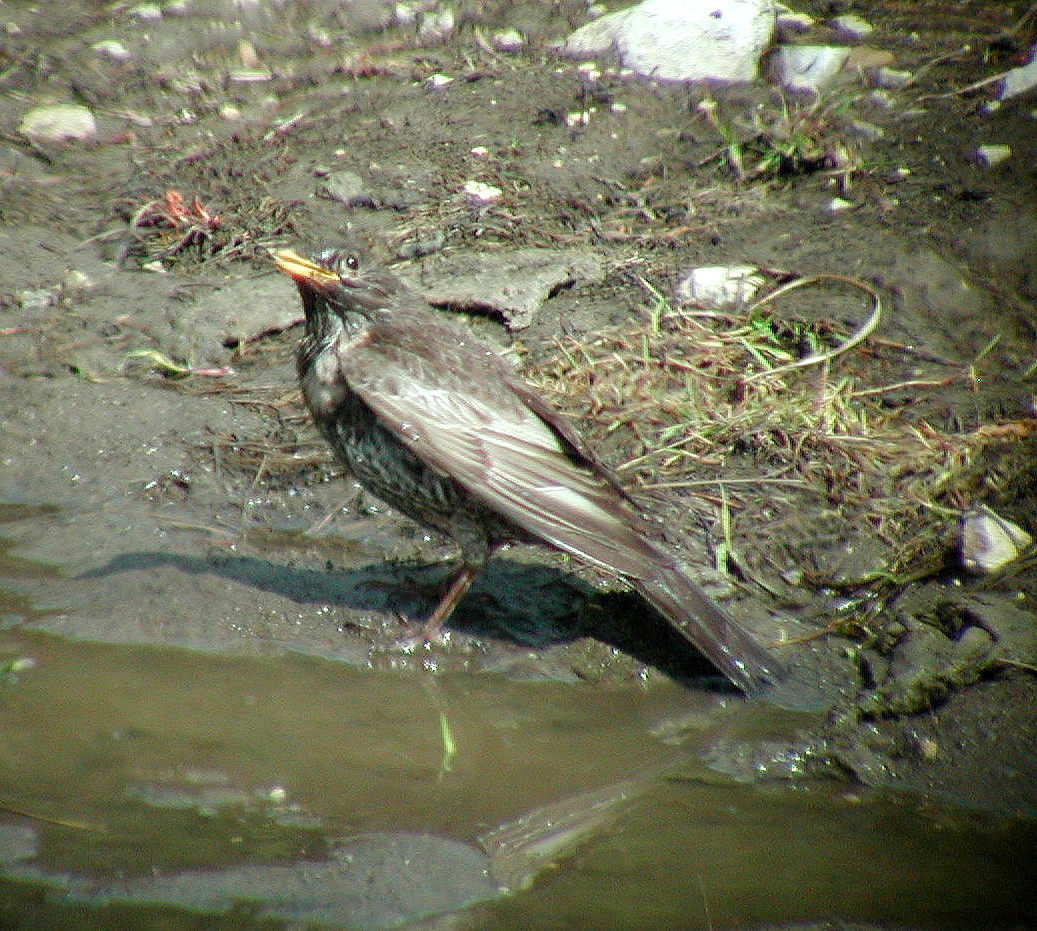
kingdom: Animalia
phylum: Chordata
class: Aves
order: Passeriformes
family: Turdidae
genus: Turdus
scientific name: Turdus torquatus
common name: Ring ouzel
